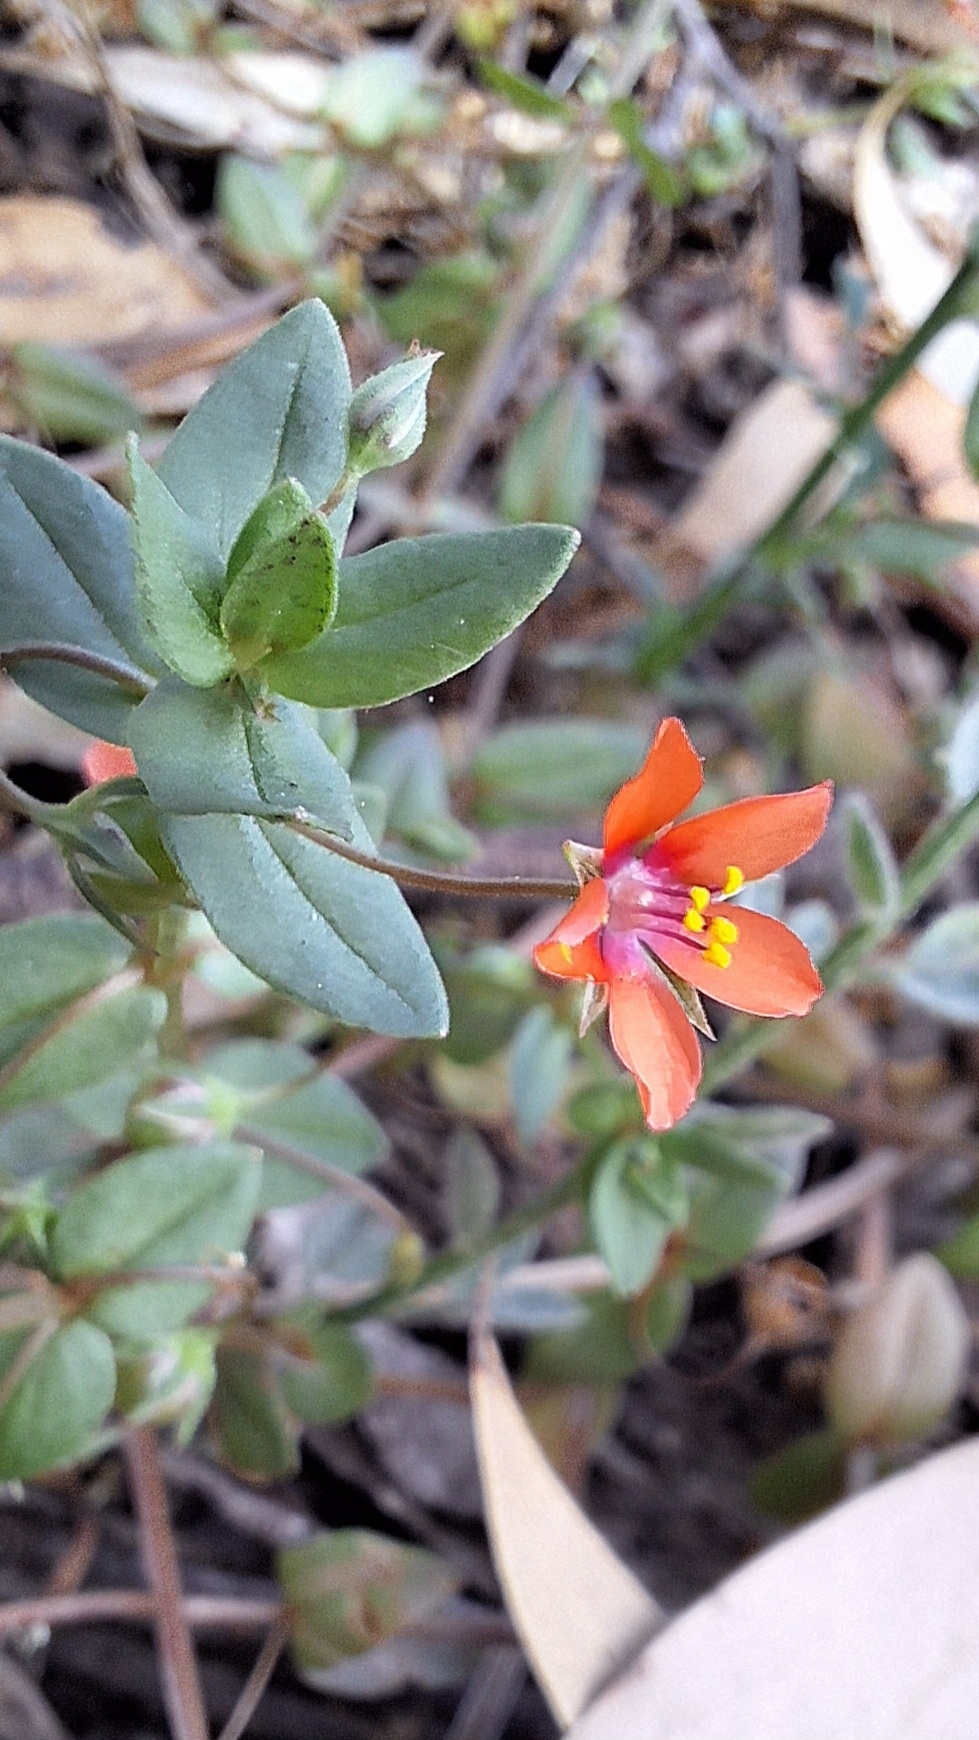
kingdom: Plantae
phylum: Tracheophyta
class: Magnoliopsida
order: Ericales
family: Primulaceae
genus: Lysimachia
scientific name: Lysimachia arvensis
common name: Scarlet pimpernel
